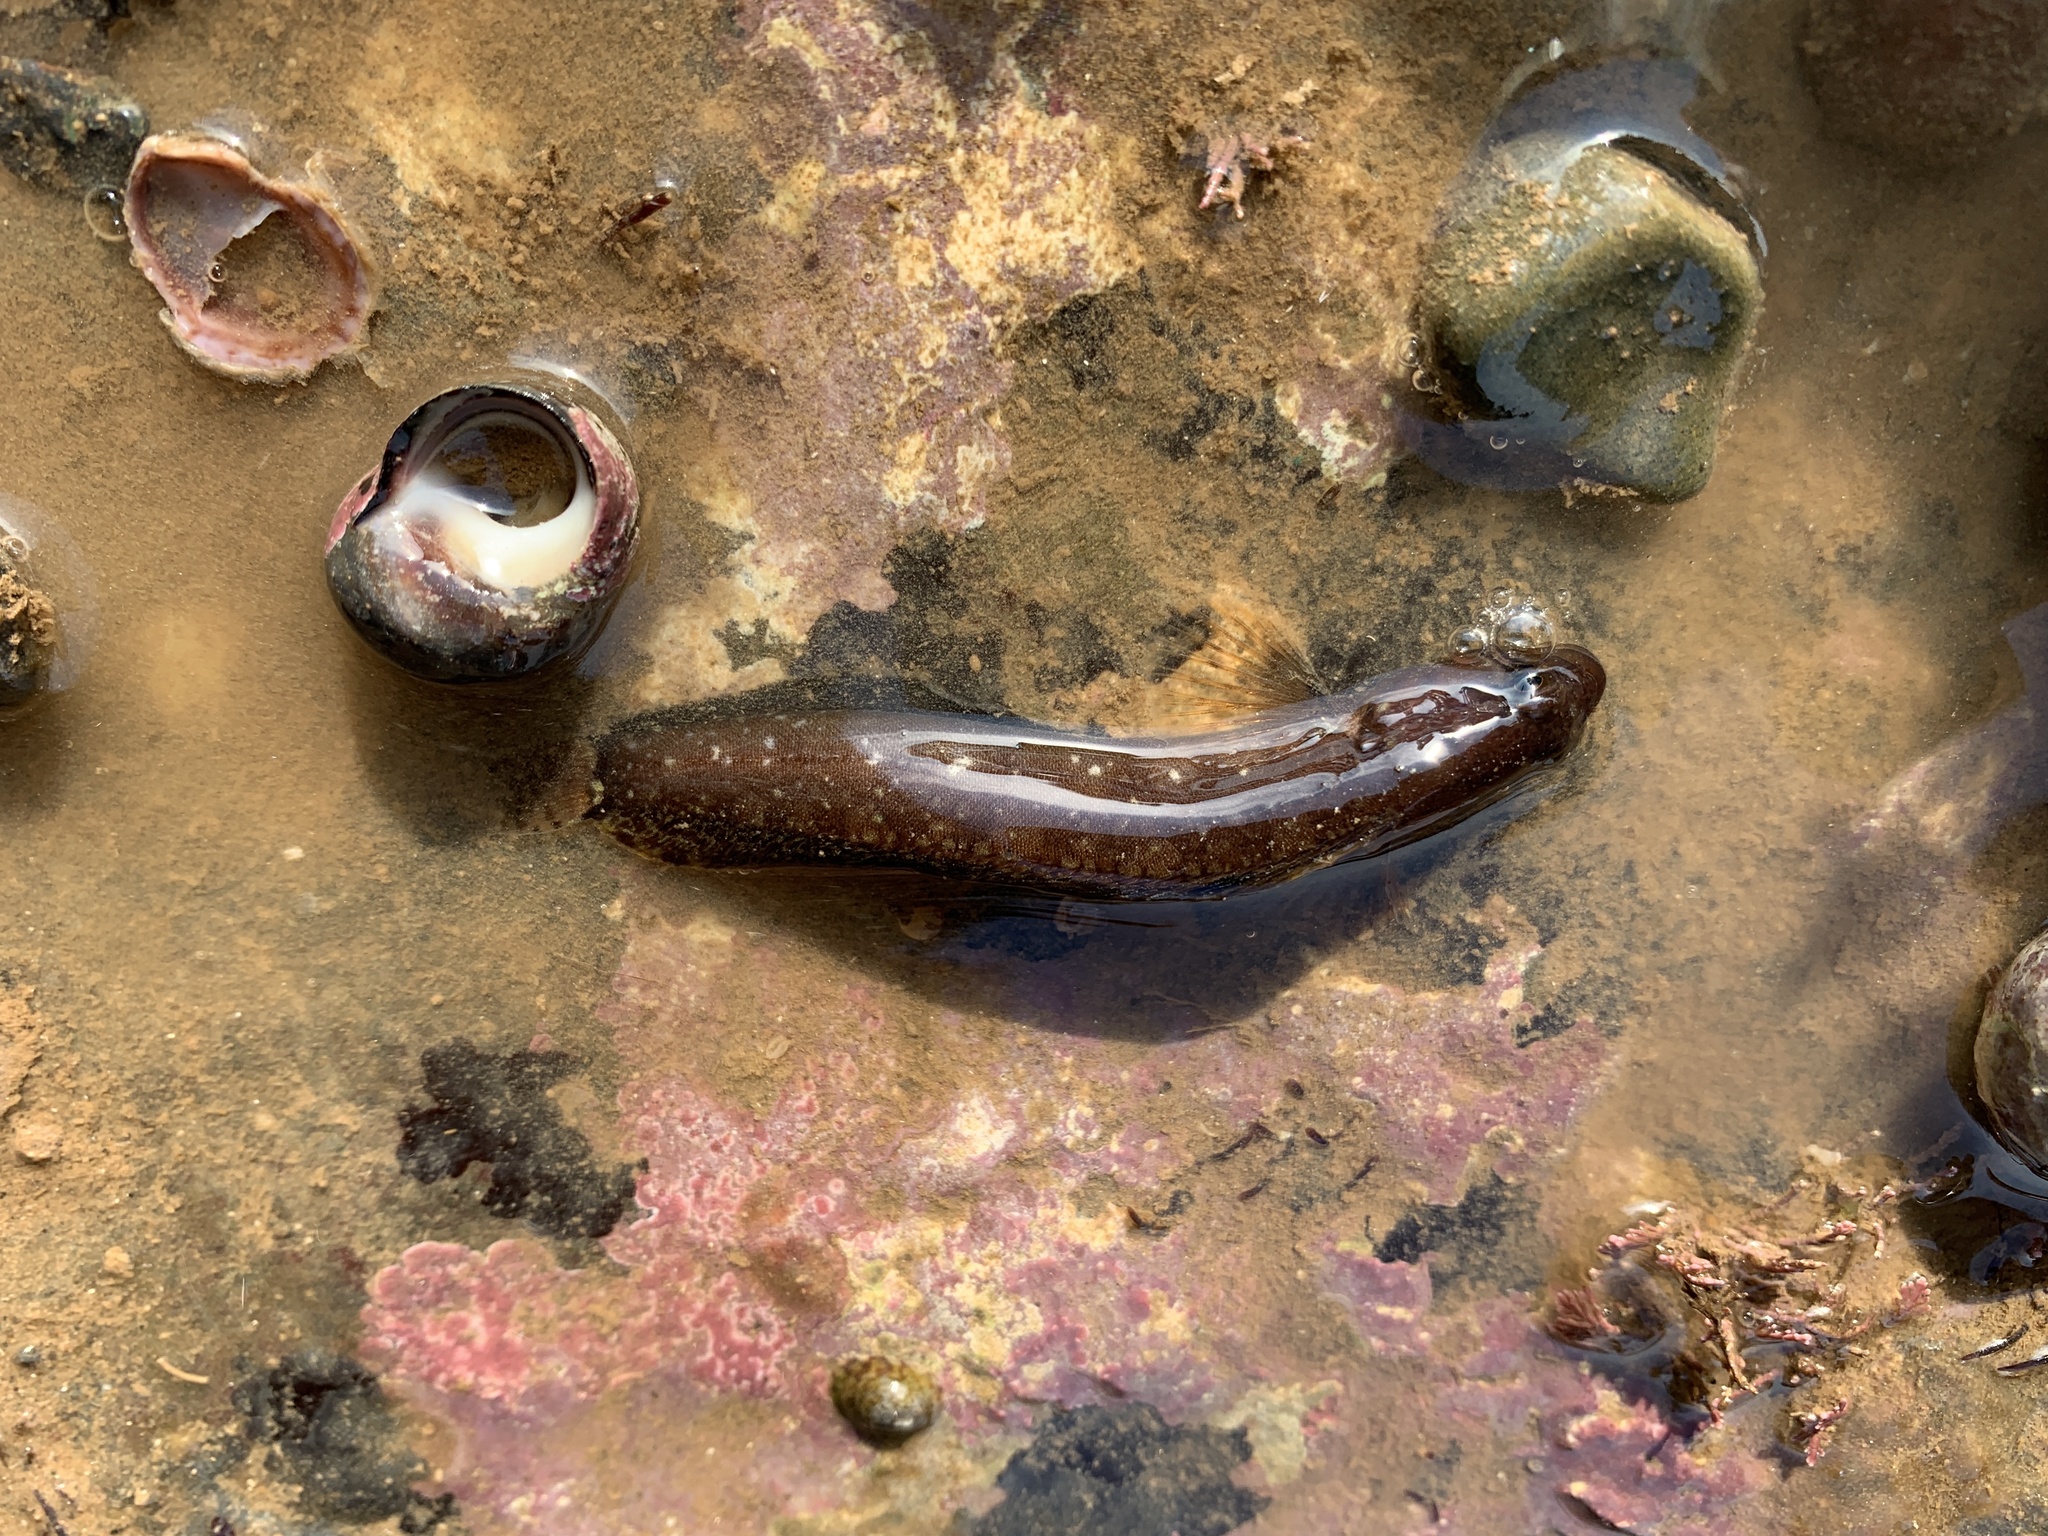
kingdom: Animalia
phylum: Chordata
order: Perciformes
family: Stichaeidae
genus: Ulvaria
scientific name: Ulvaria subbifurcata
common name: Radiated shanny
